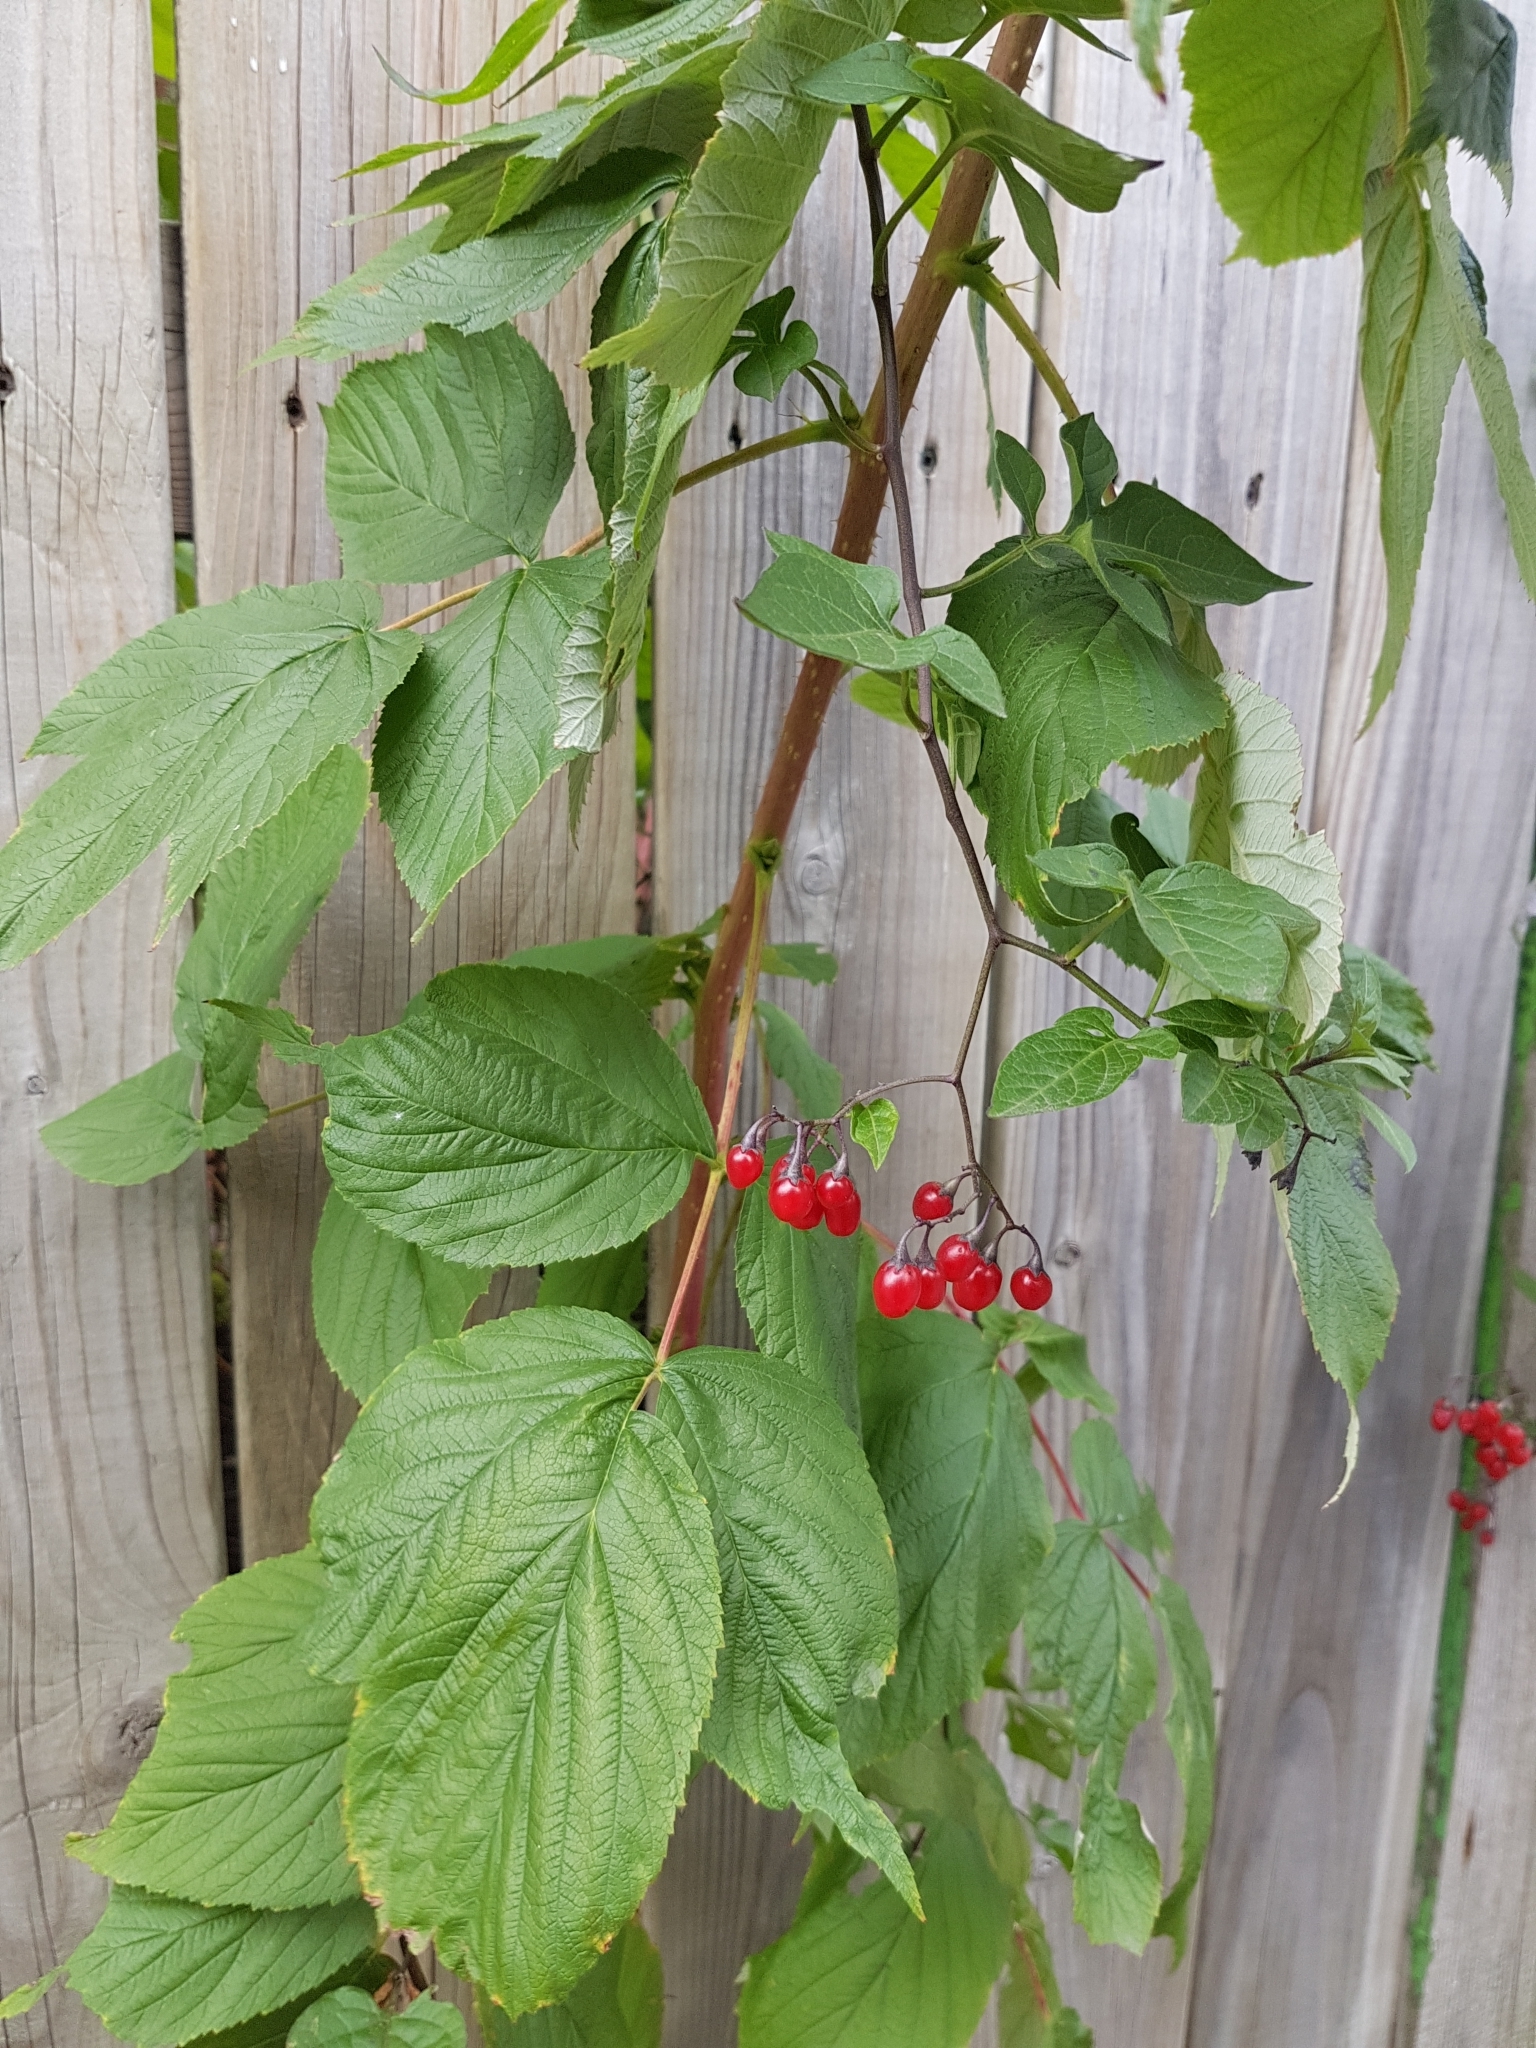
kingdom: Plantae
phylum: Tracheophyta
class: Magnoliopsida
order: Solanales
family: Solanaceae
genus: Solanum
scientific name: Solanum dulcamara
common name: Climbing nightshade
